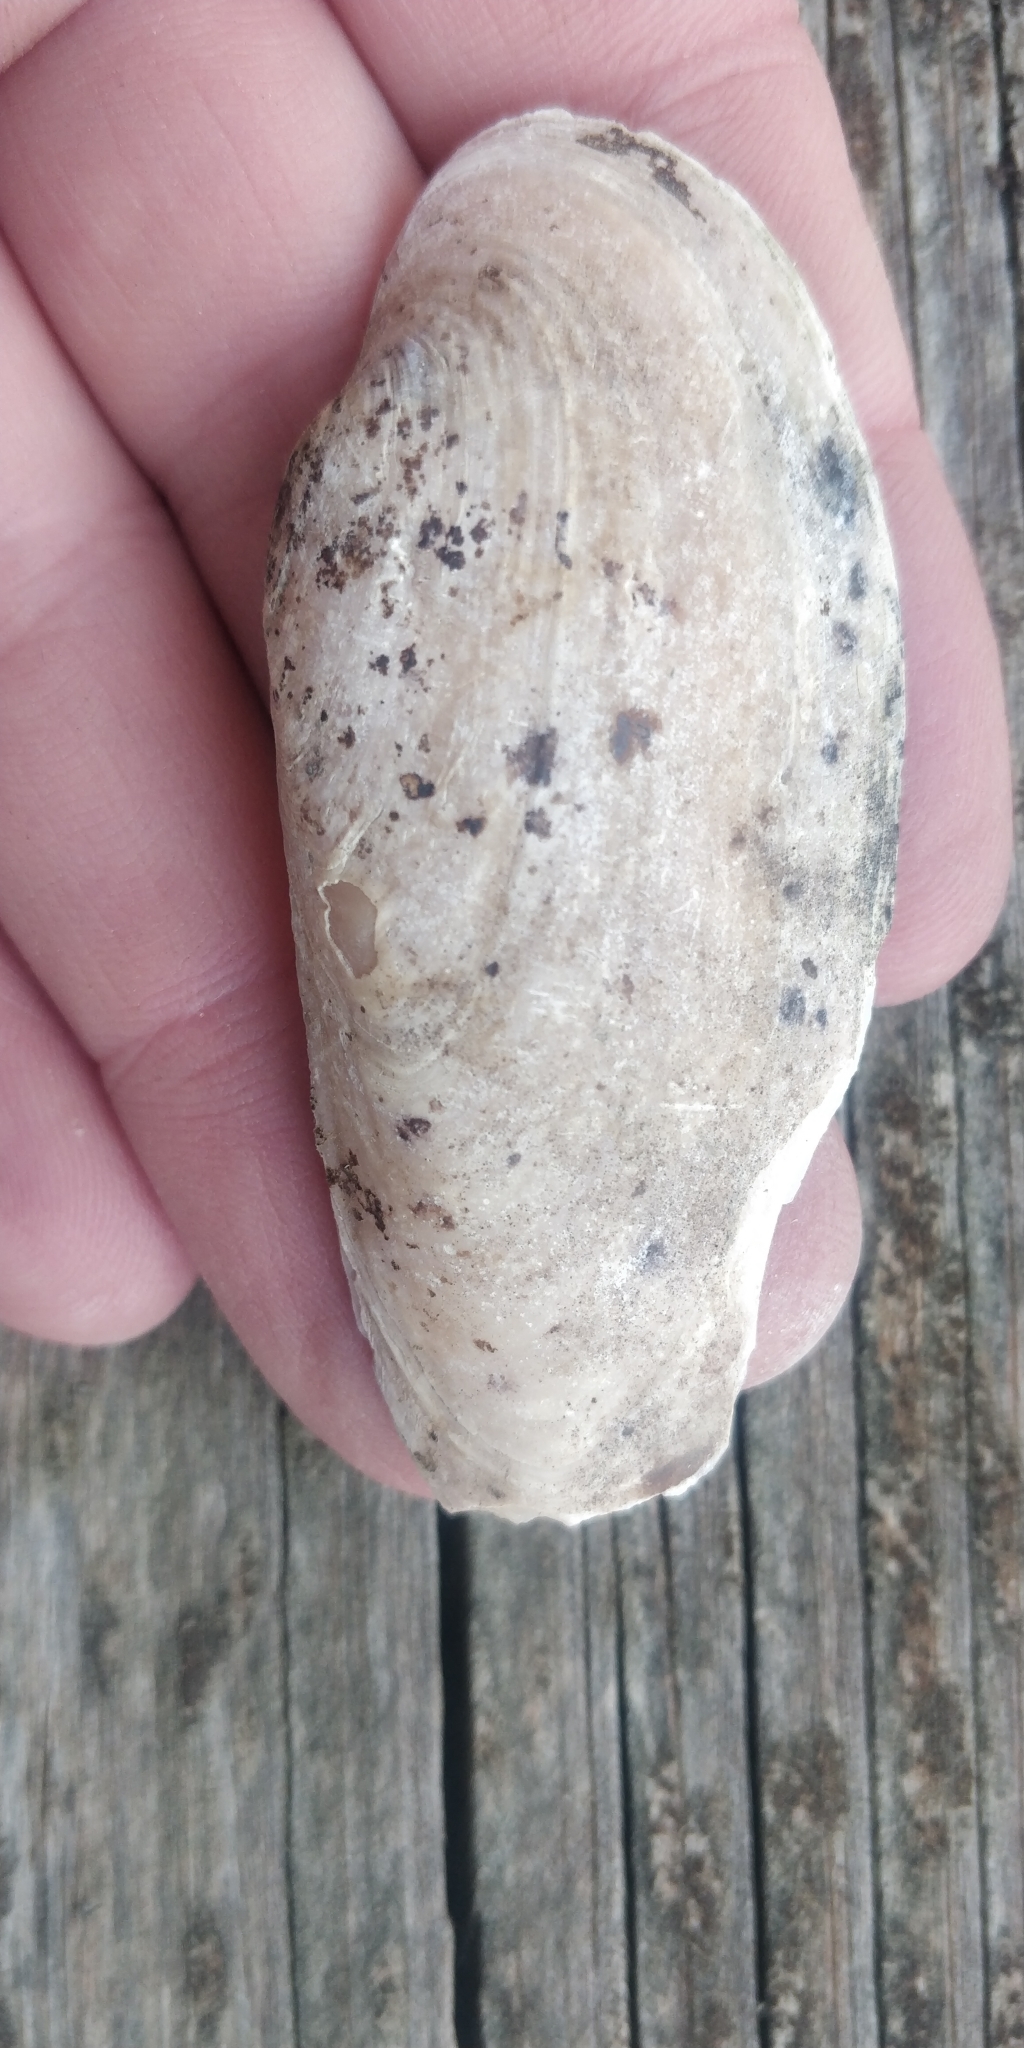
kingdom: Animalia
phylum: Mollusca
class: Bivalvia
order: Unionida
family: Unionidae
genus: Ligumia
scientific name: Ligumia recta
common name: Black sandshell
